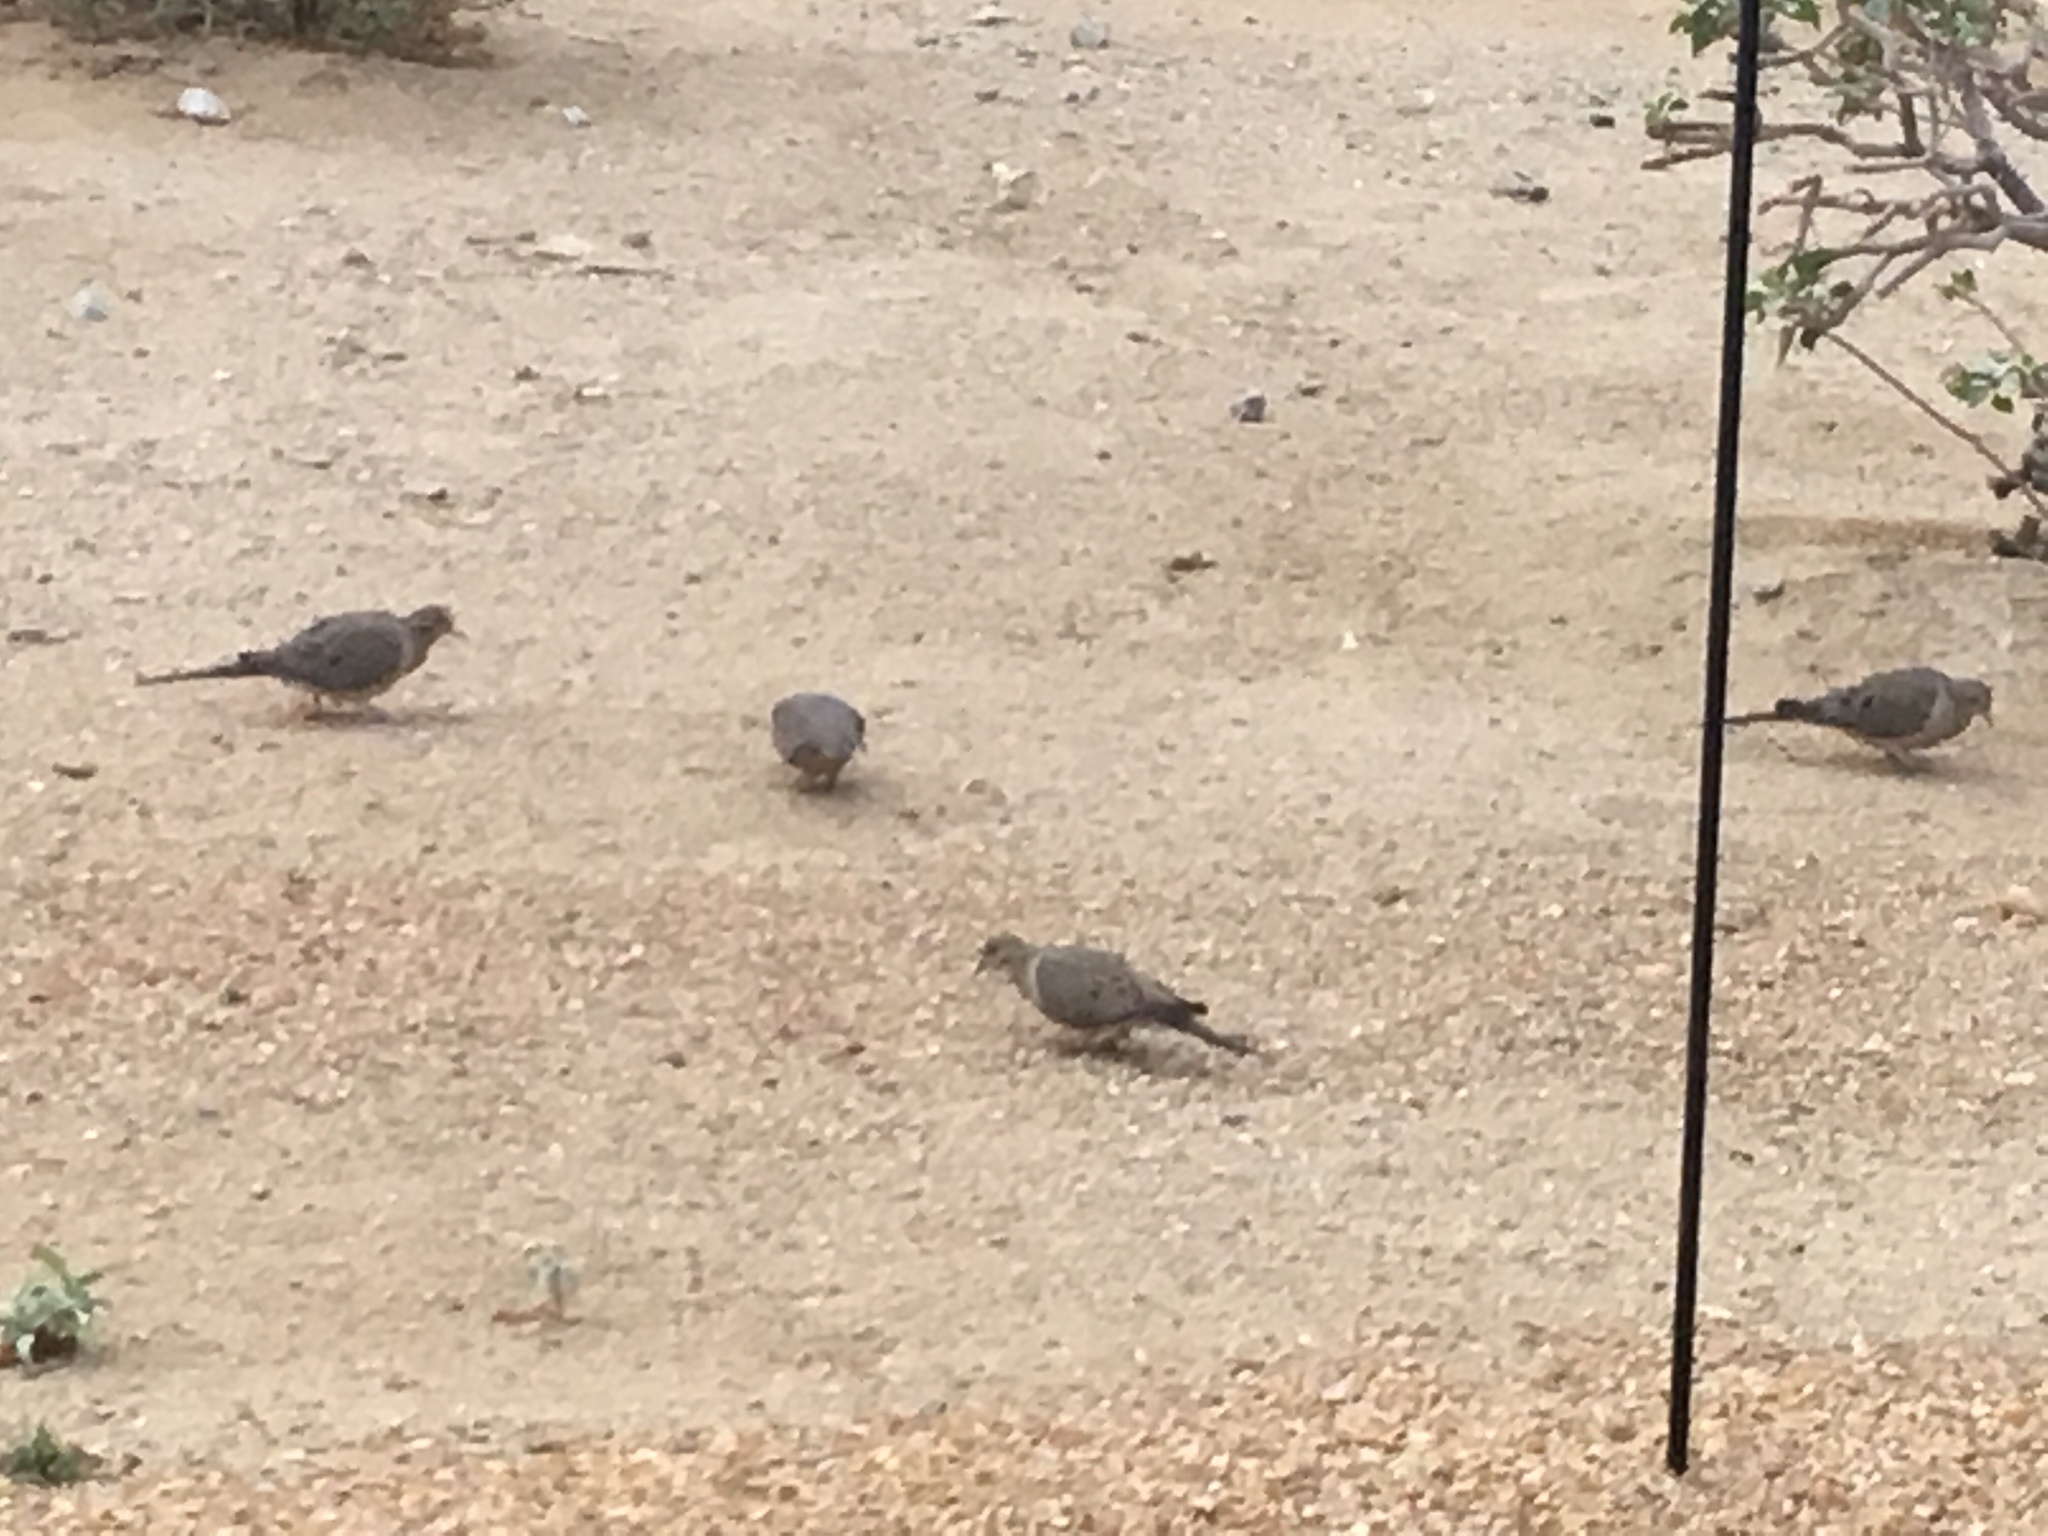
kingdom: Animalia
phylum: Chordata
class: Aves
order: Columbiformes
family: Columbidae
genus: Zenaida
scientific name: Zenaida macroura
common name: Mourning dove
